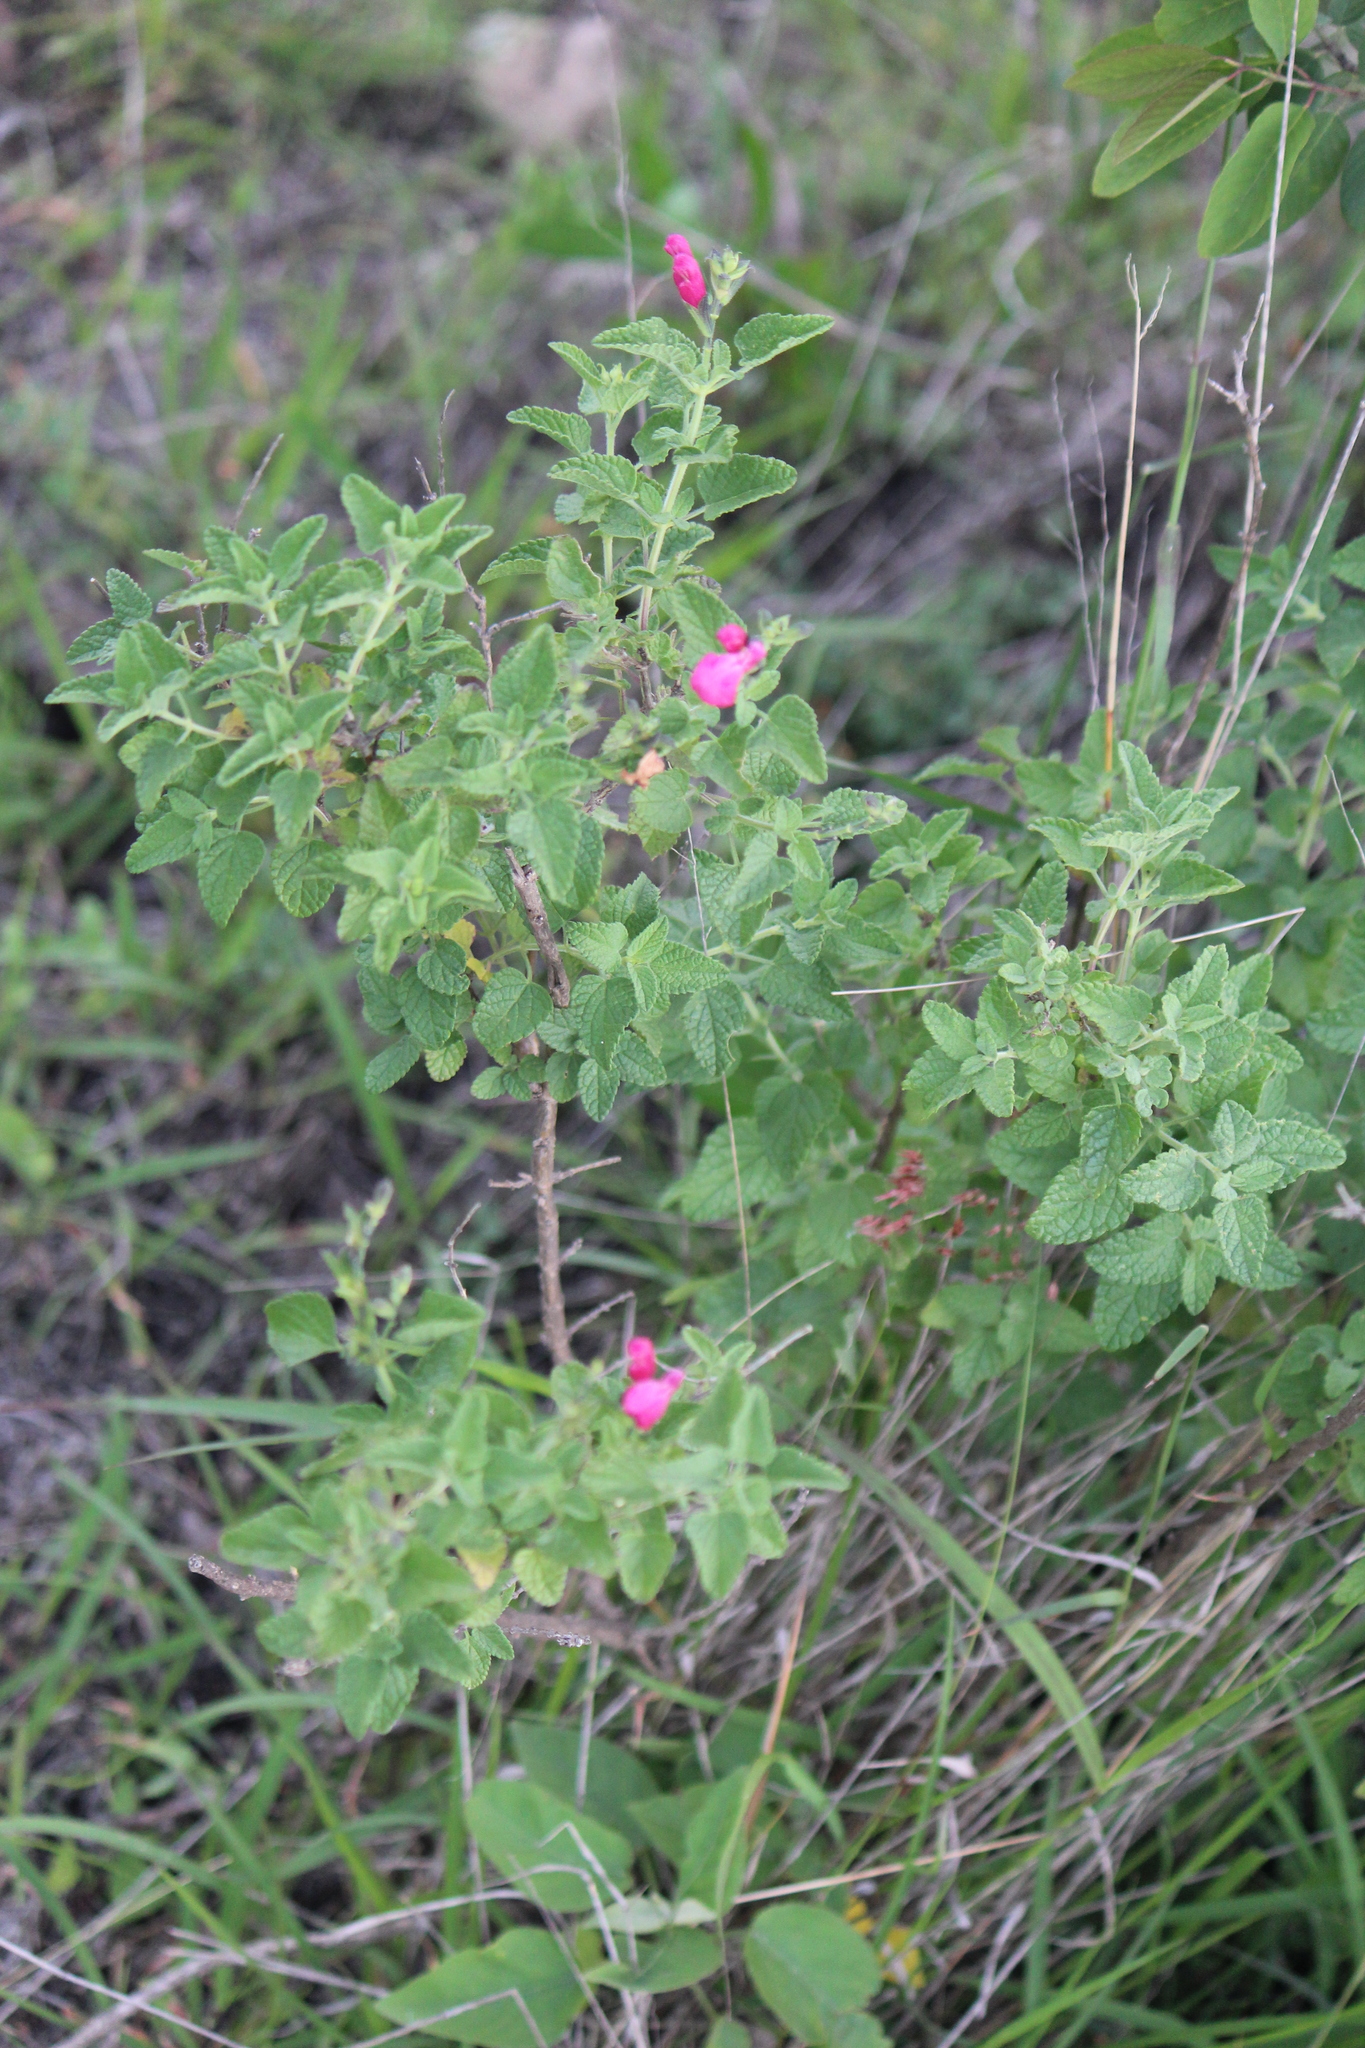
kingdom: Plantae
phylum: Tracheophyta
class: Magnoliopsida
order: Lamiales
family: Lamiaceae
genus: Salvia
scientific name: Salvia microphylla
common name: Baby sage
